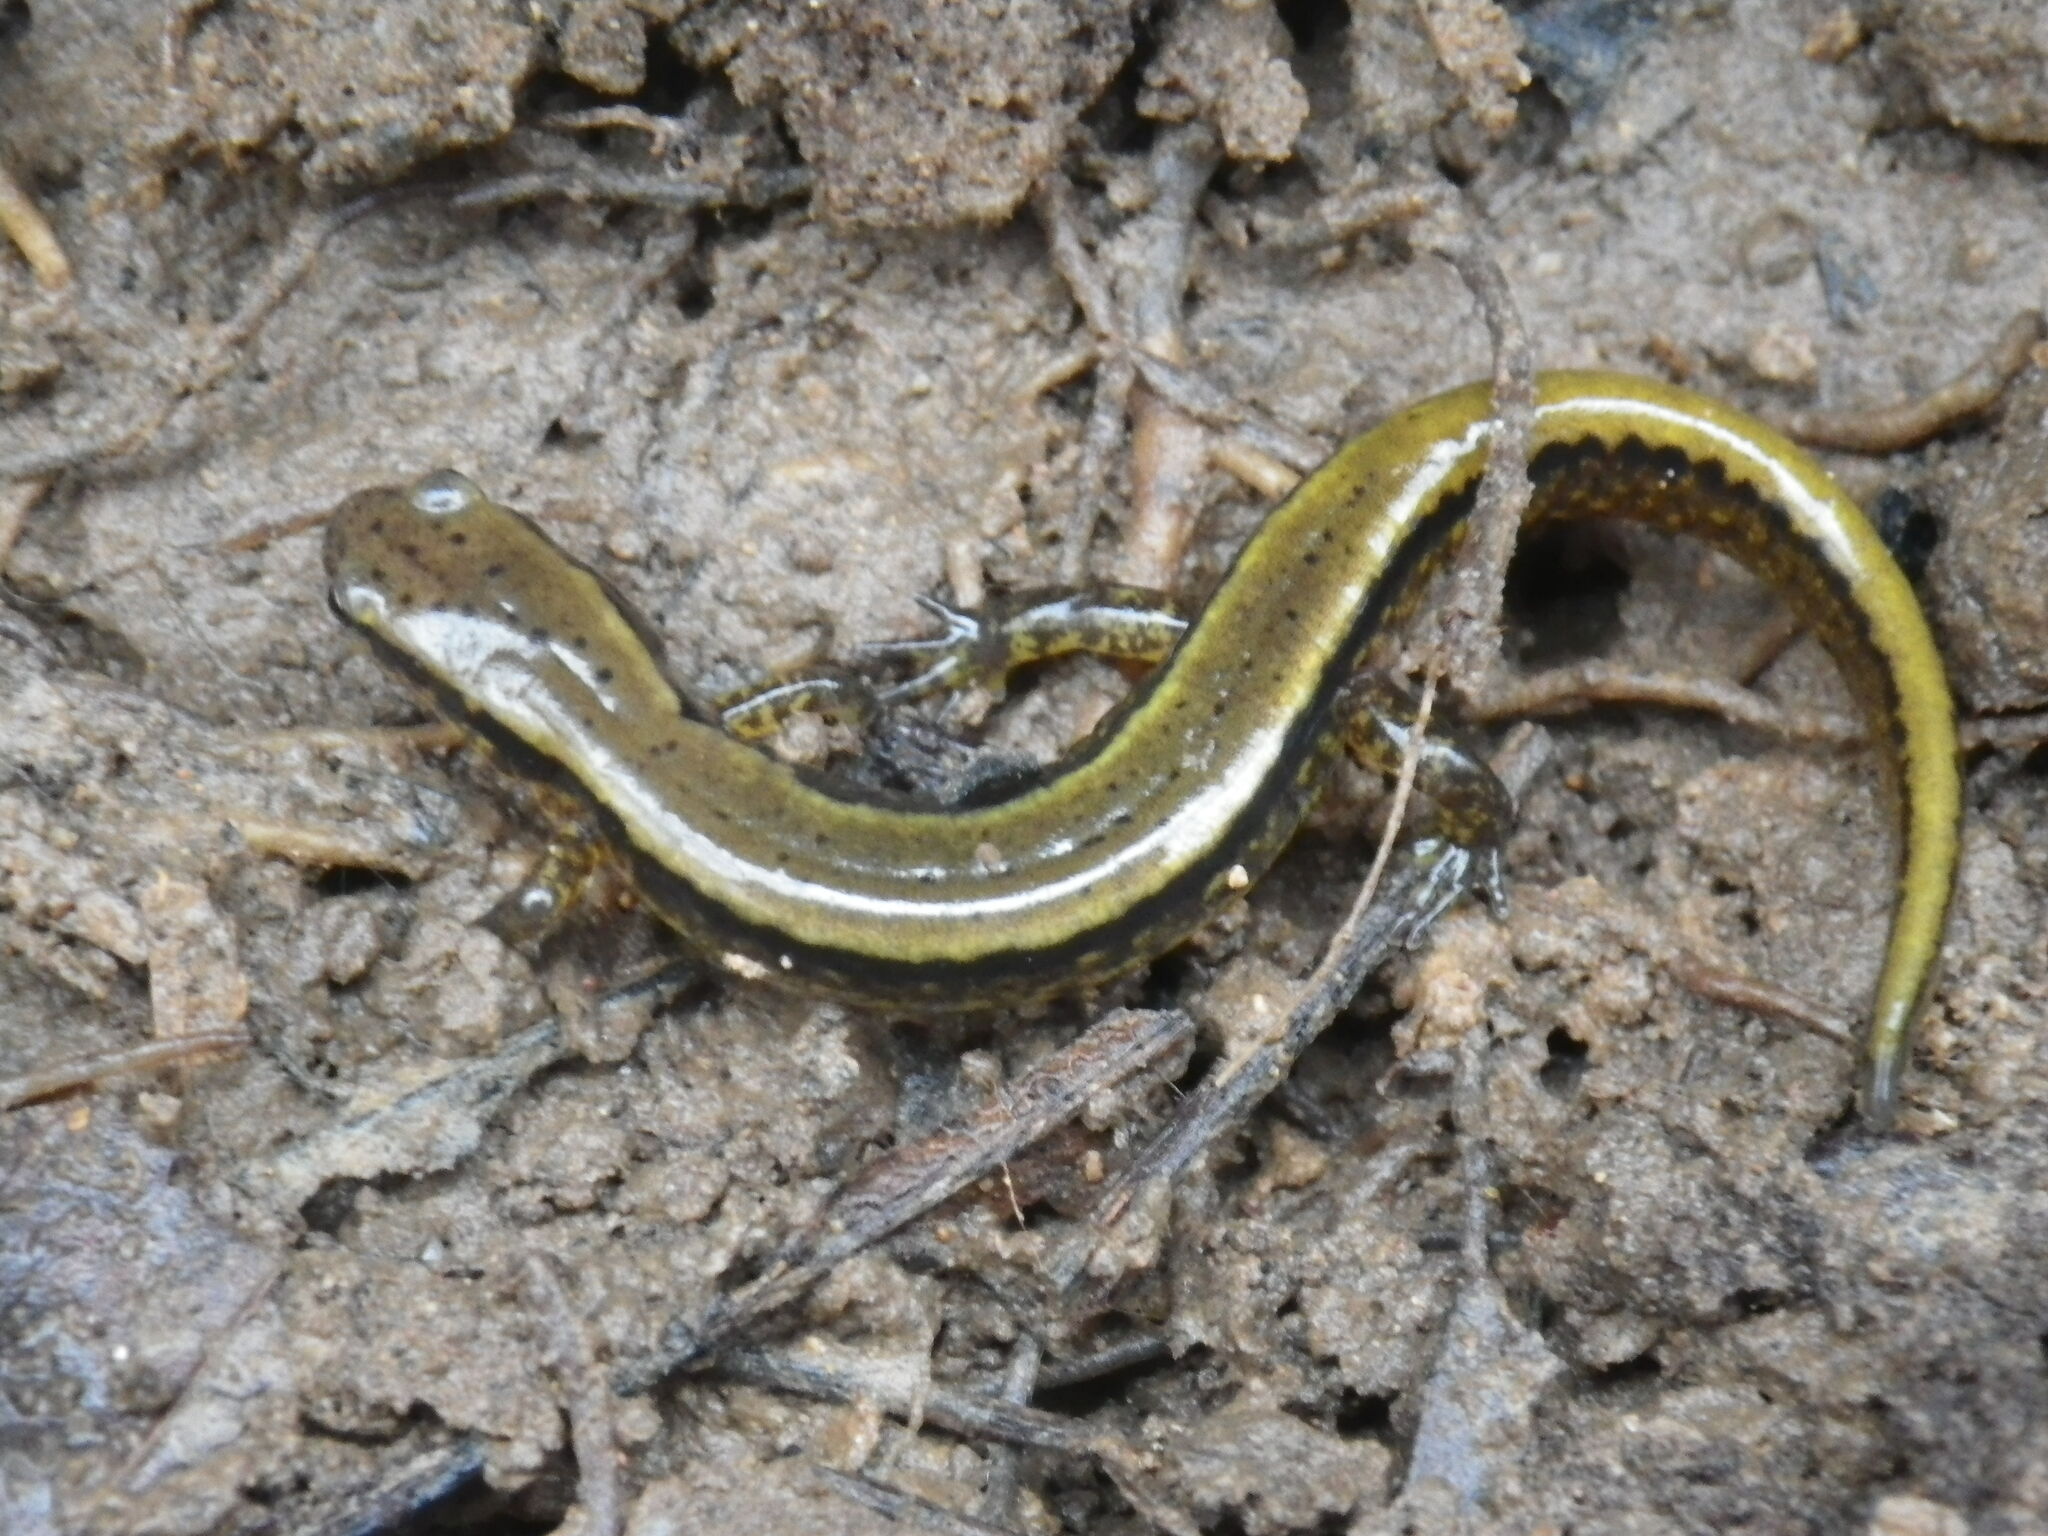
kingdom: Animalia
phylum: Chordata
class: Amphibia
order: Caudata
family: Plethodontidae
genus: Eurycea
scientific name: Eurycea cirrigera
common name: Southern two-lined salamander
